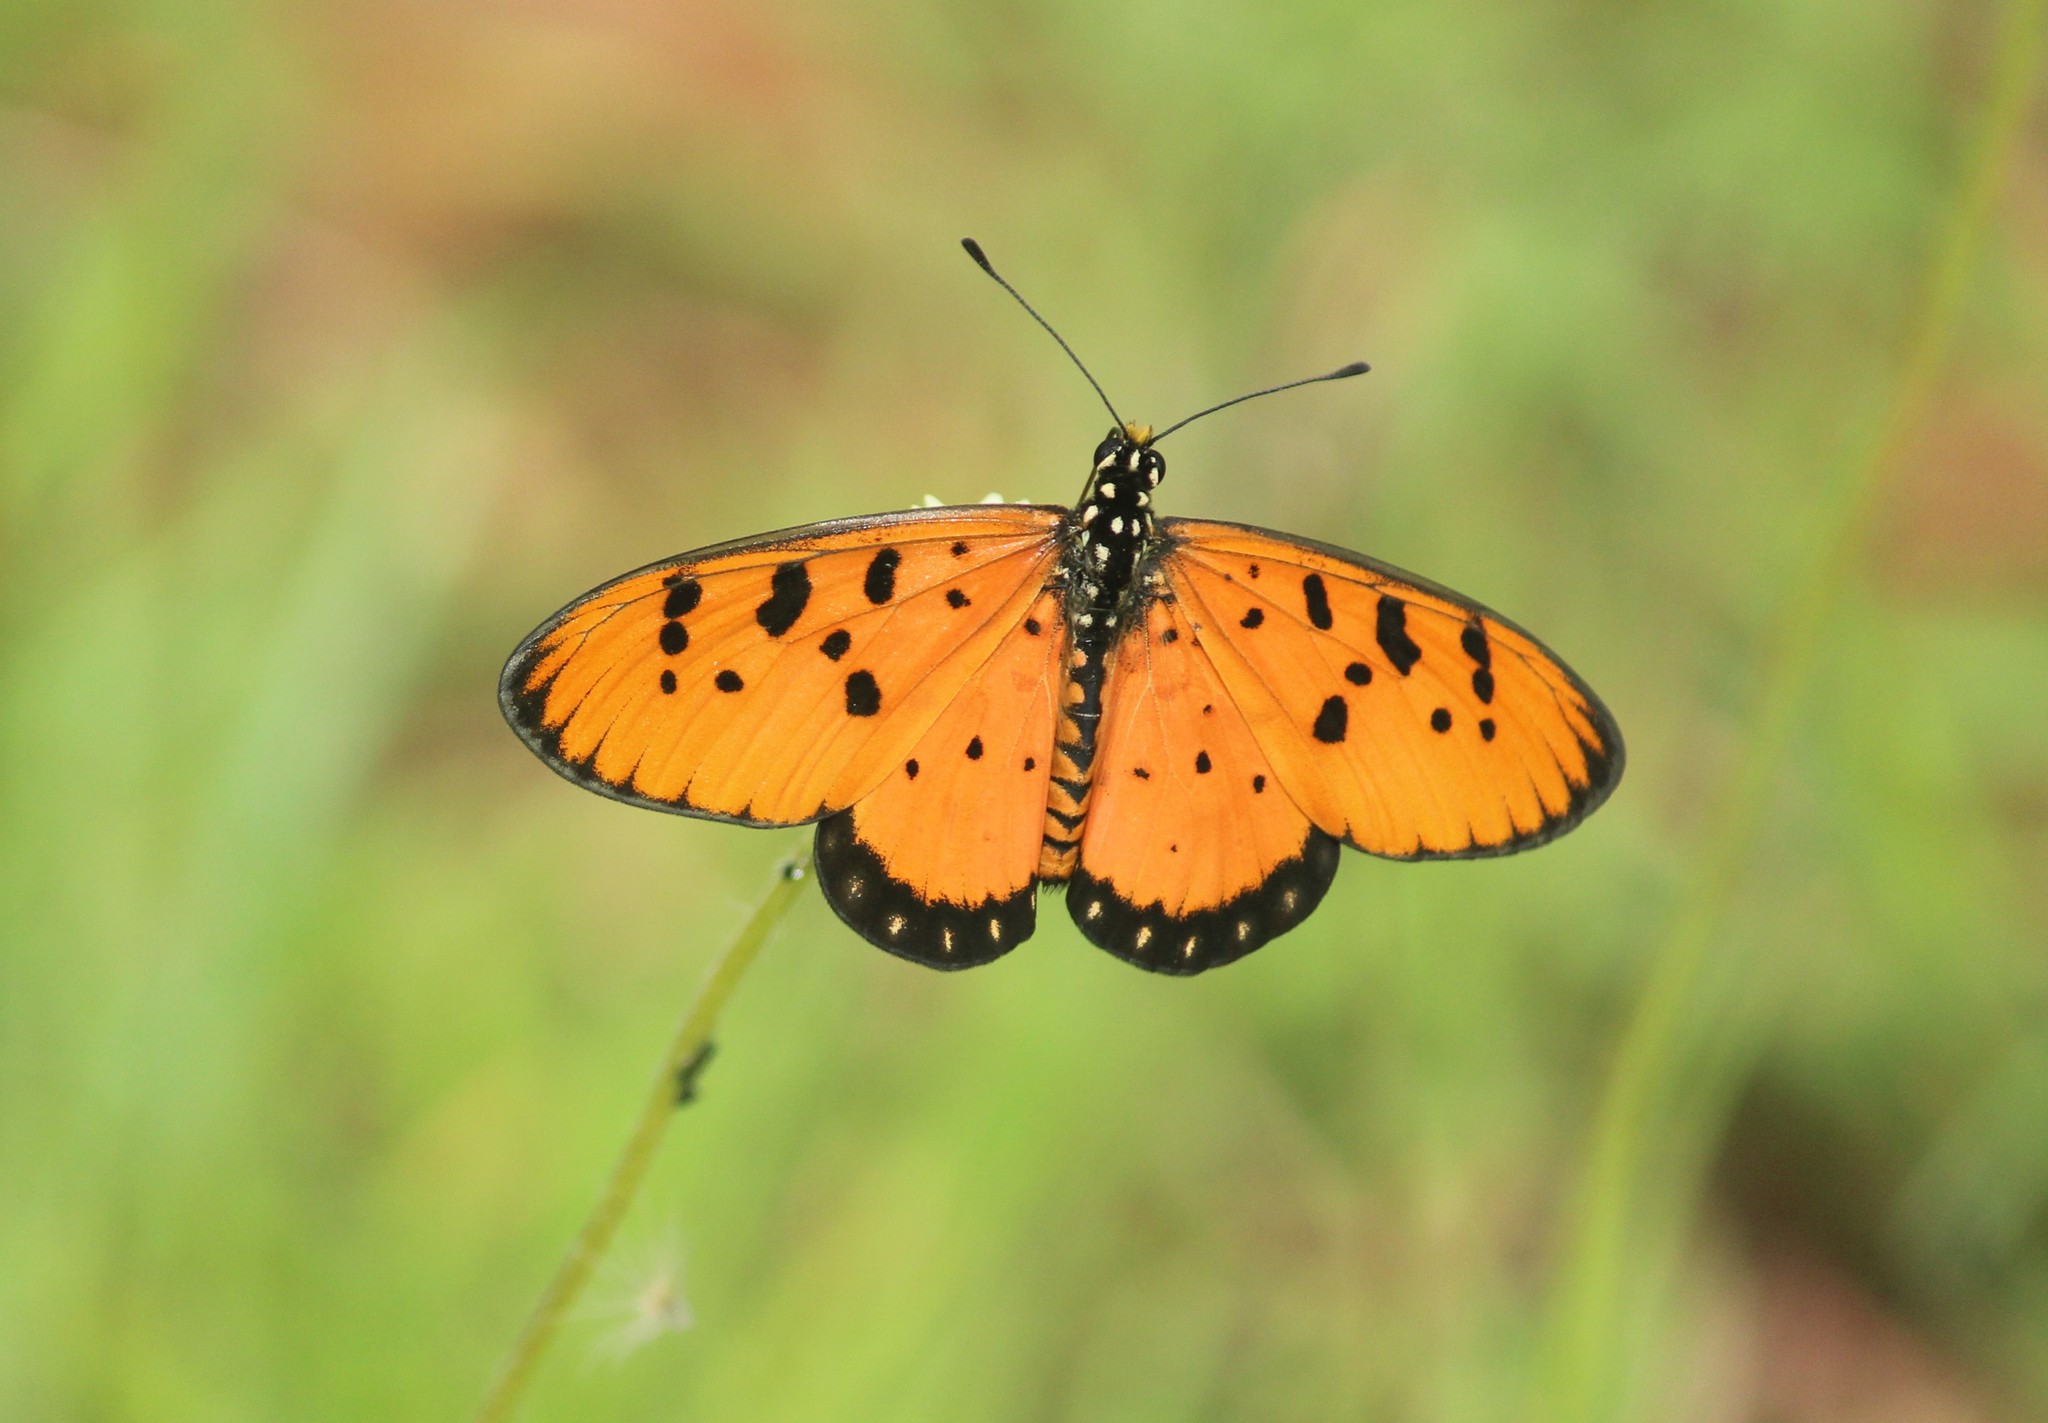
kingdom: Animalia
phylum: Arthropoda
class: Insecta
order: Lepidoptera
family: Nymphalidae
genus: Acraea
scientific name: Acraea terpsicore
